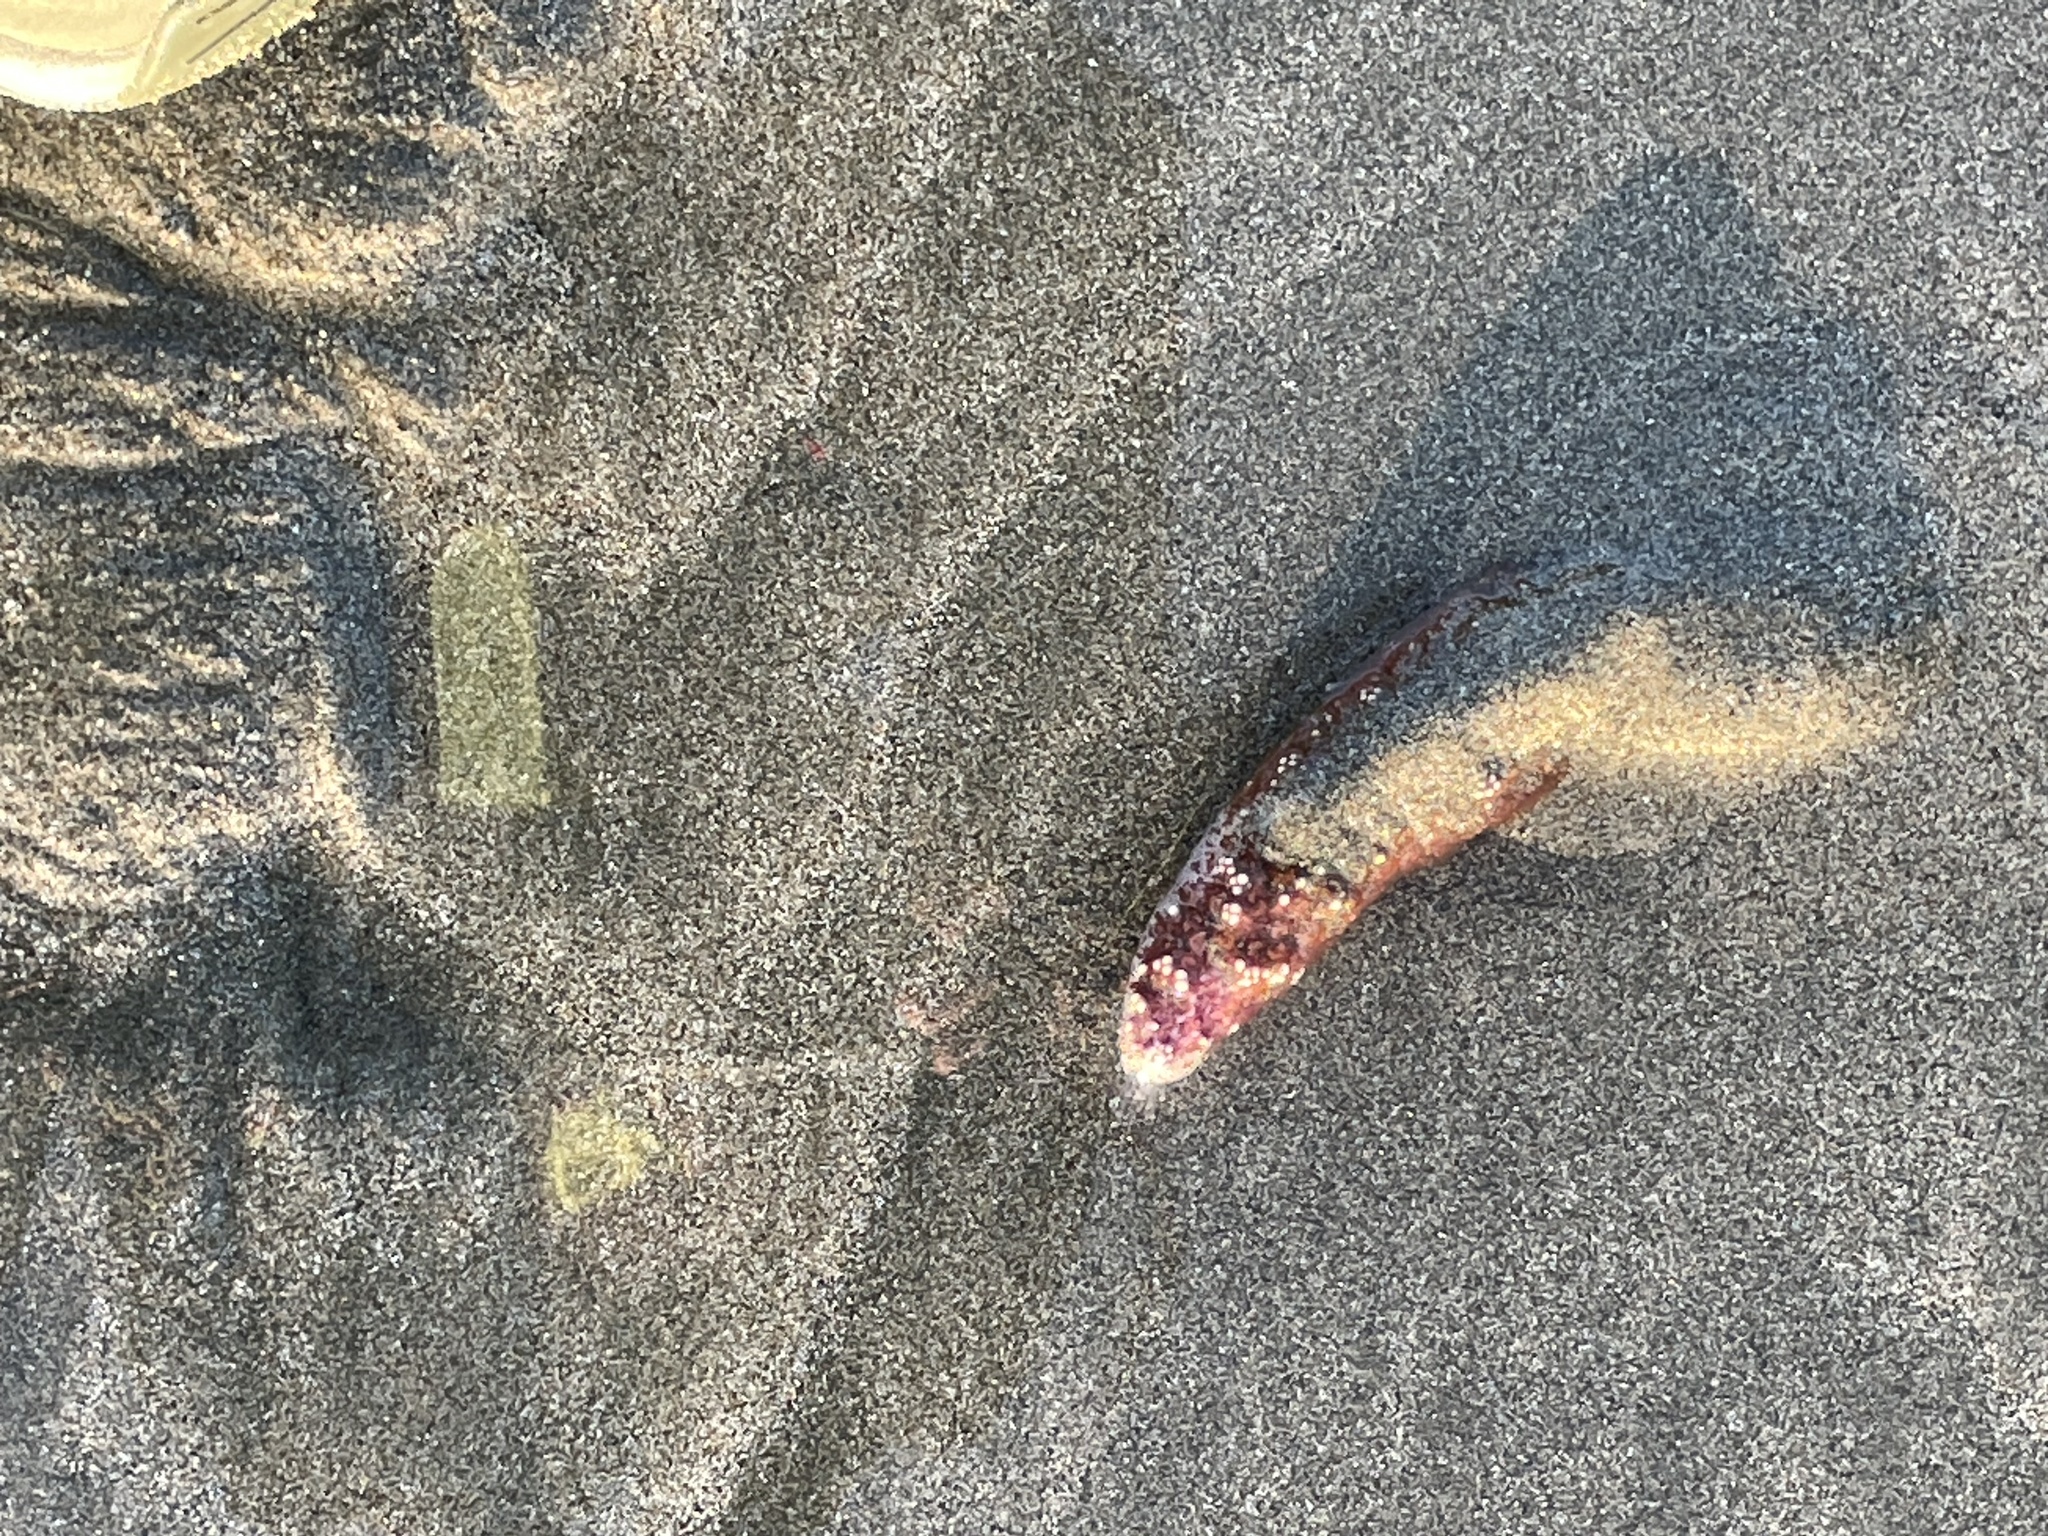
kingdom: Animalia
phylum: Echinodermata
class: Asteroidea
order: Forcipulatida
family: Asteriidae
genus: Pisaster
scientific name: Pisaster ochraceus
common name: Ochre stars
